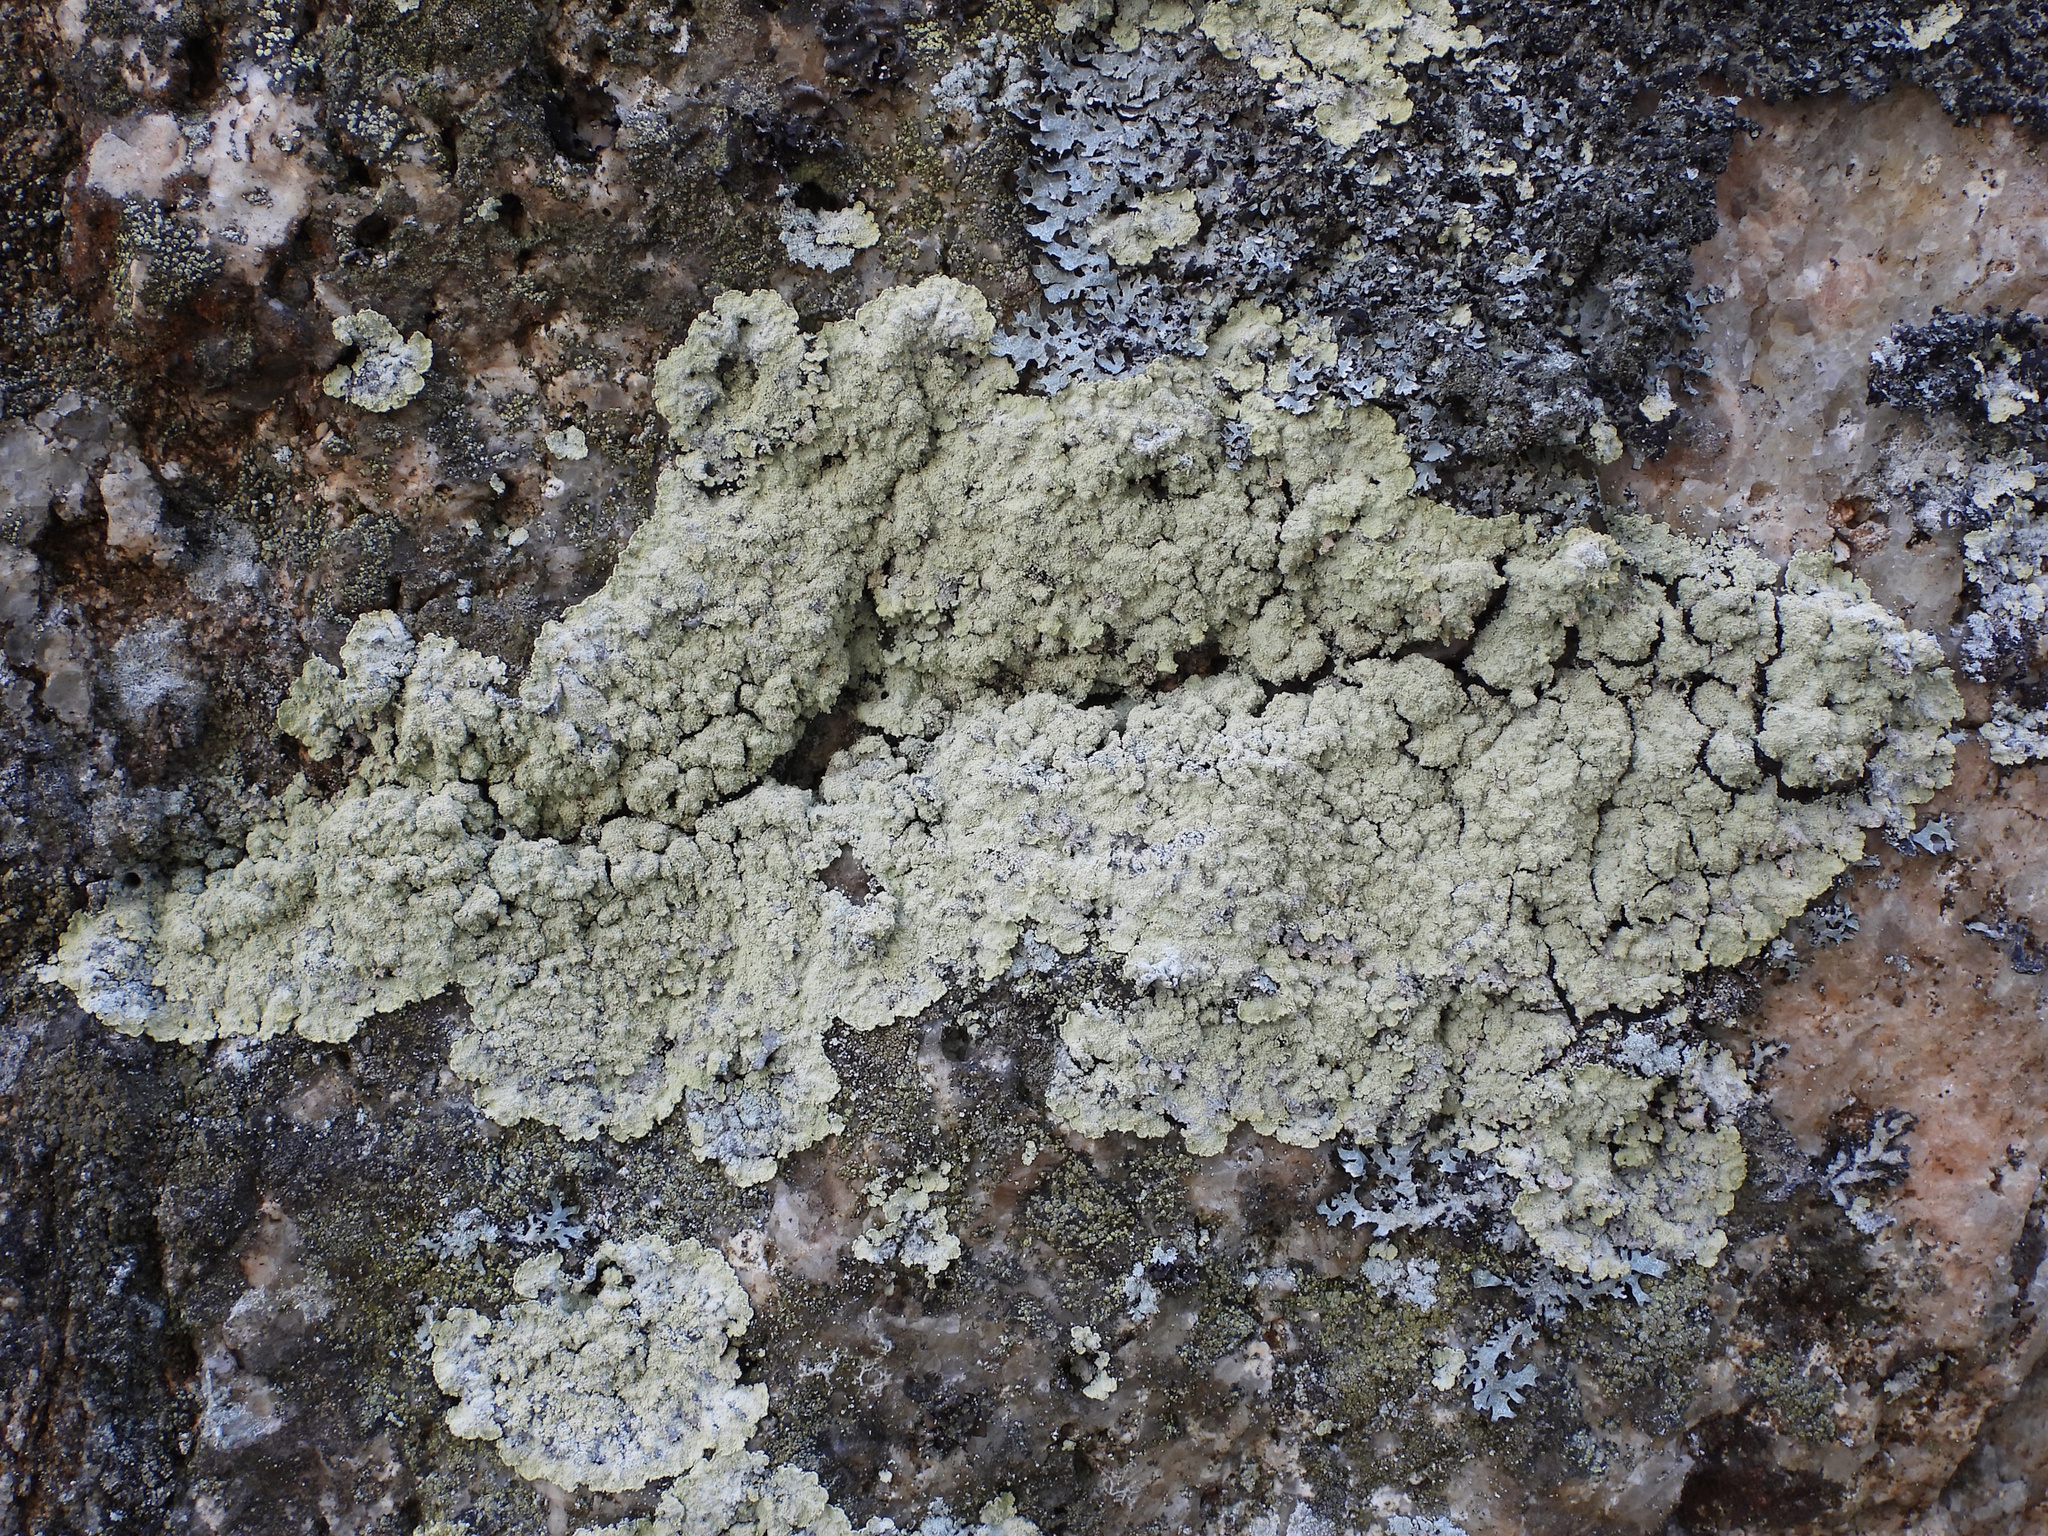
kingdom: Fungi
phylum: Ascomycota
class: Lecanoromycetes
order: Lecanorales
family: Stereocaulaceae
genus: Lepraria
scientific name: Lepraria membranacea
